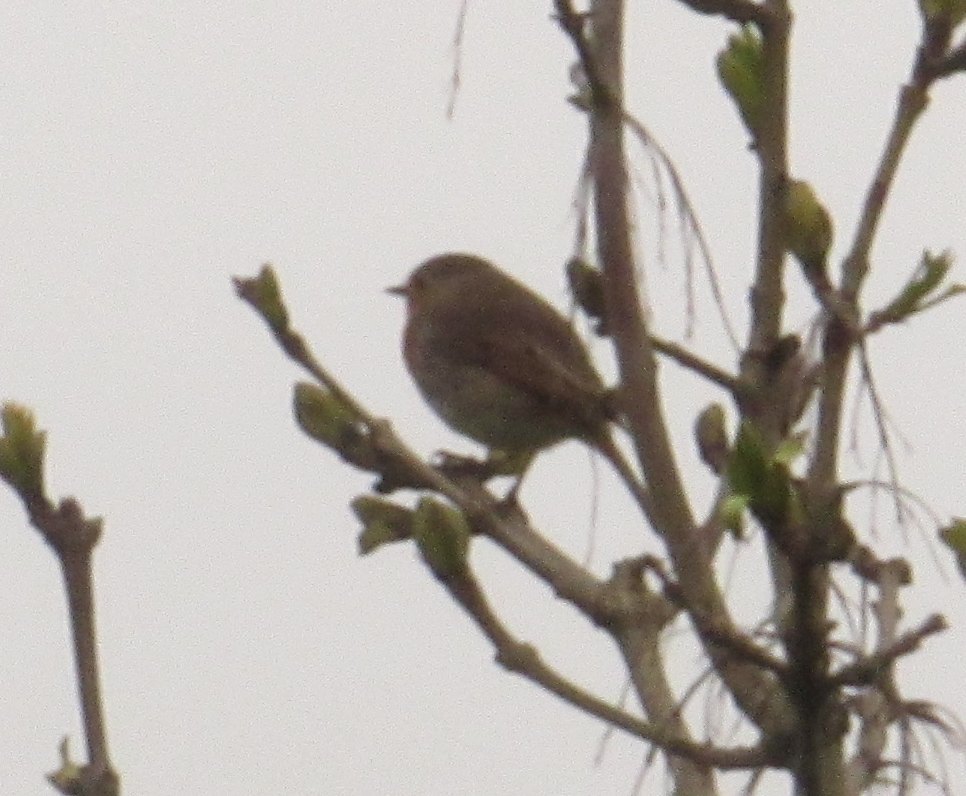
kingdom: Animalia
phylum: Chordata
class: Aves
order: Passeriformes
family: Muscicapidae
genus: Erithacus
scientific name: Erithacus rubecula
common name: European robin
